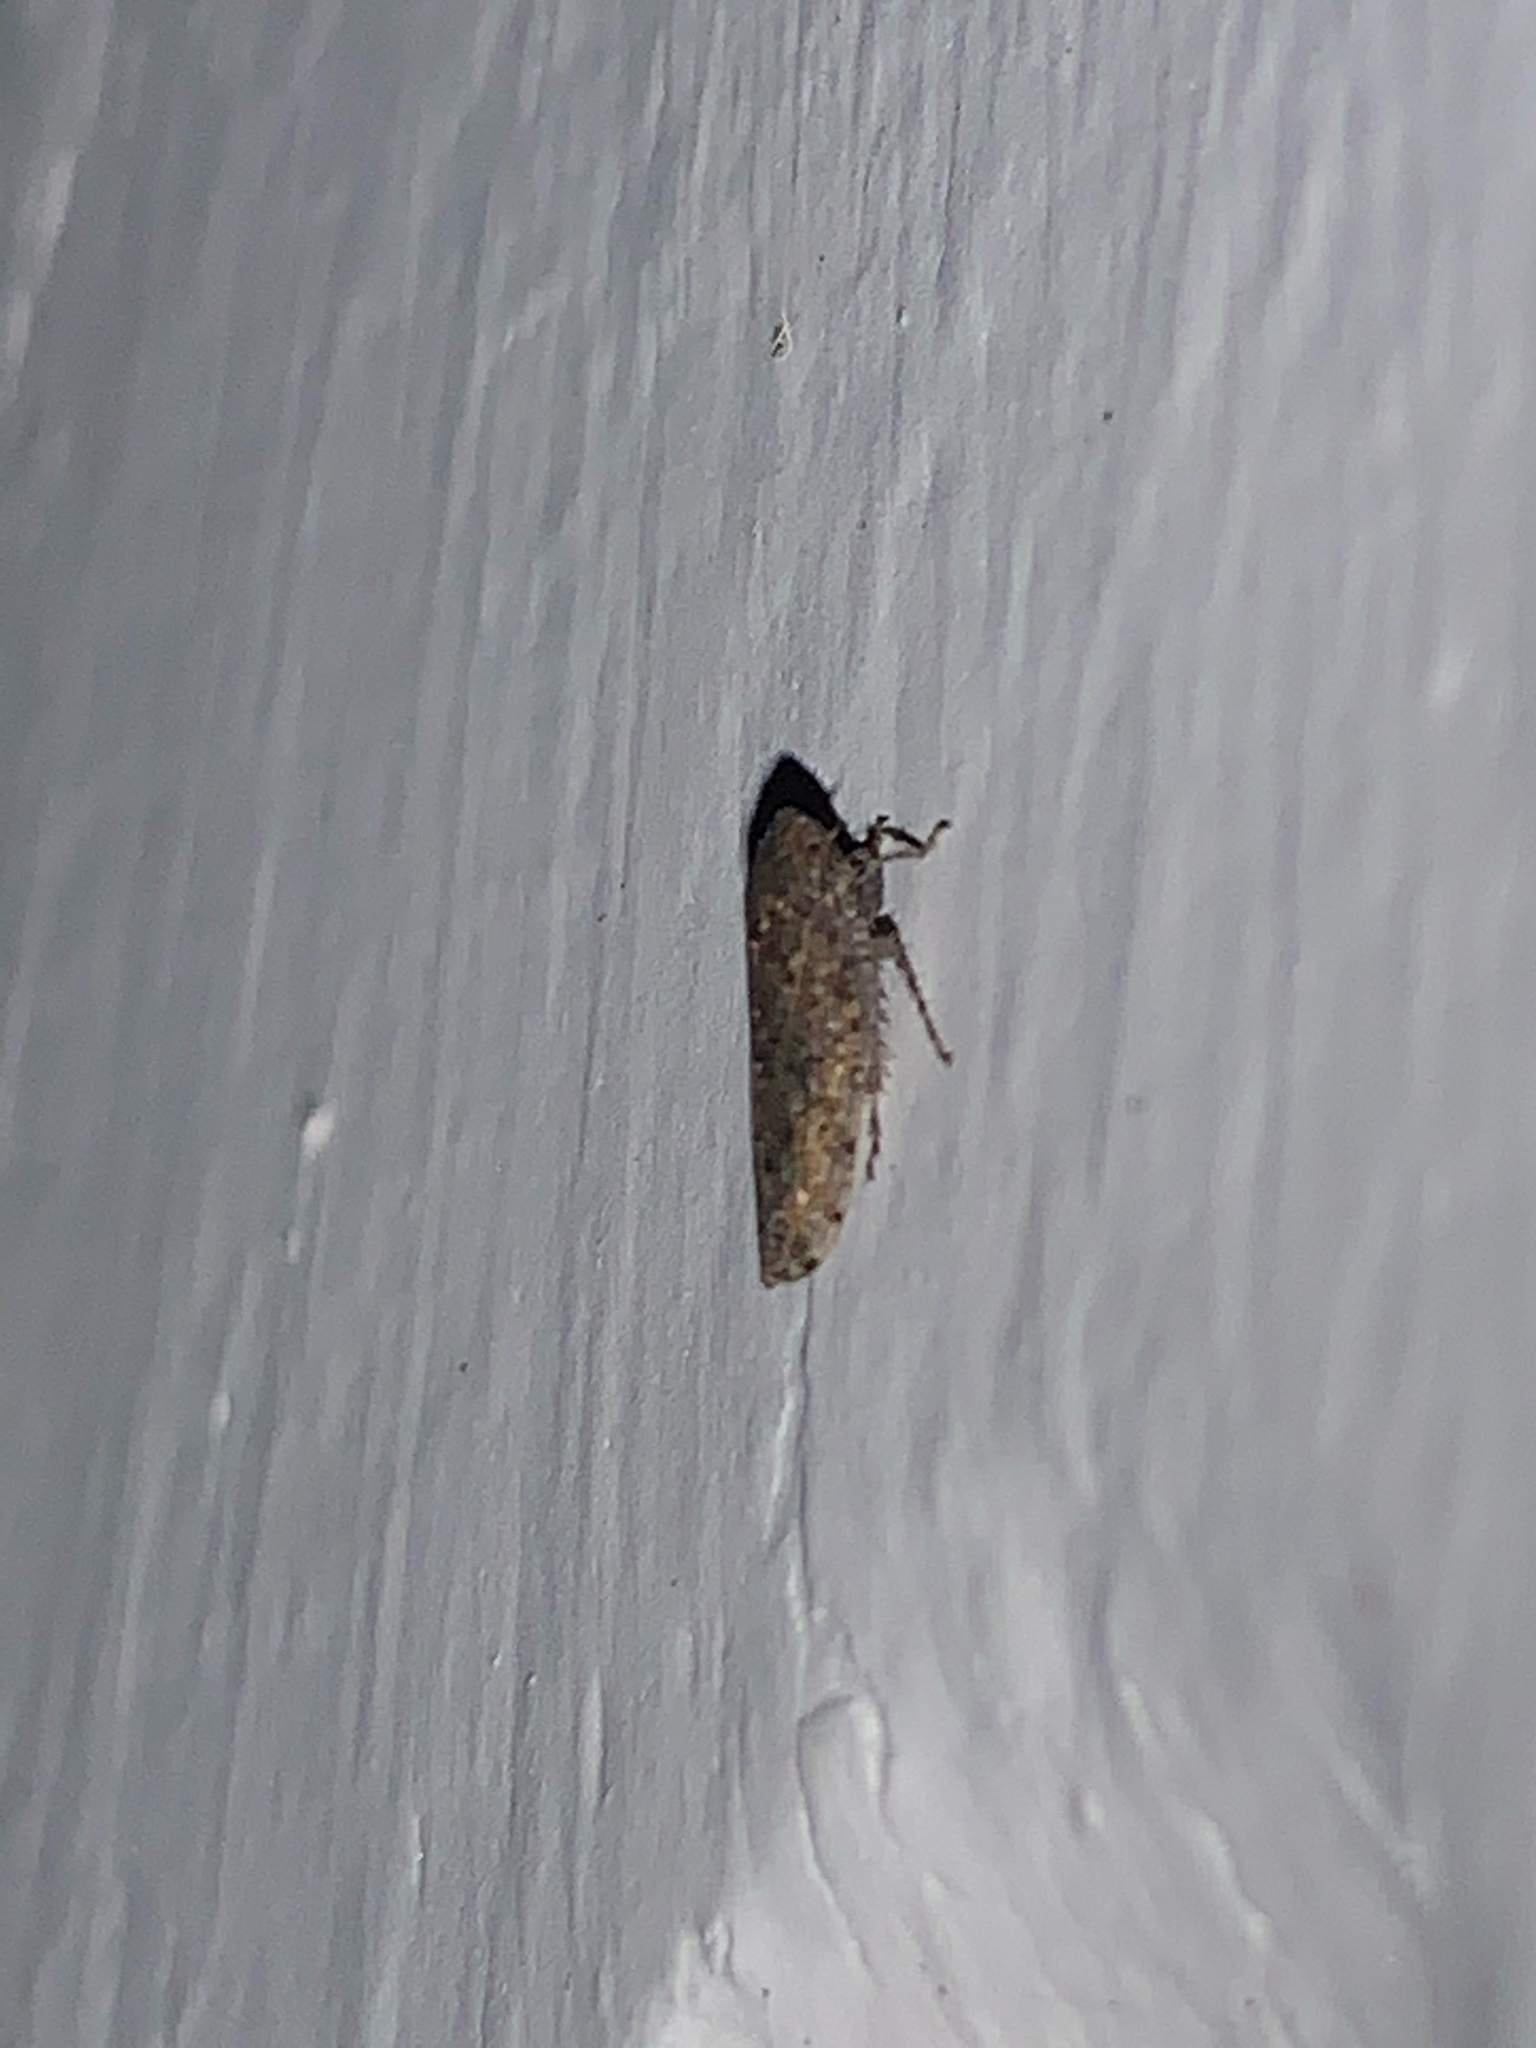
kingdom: Animalia
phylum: Arthropoda
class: Insecta
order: Hemiptera
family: Cicadellidae
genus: Paraphlepsius
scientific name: Paraphlepsius
